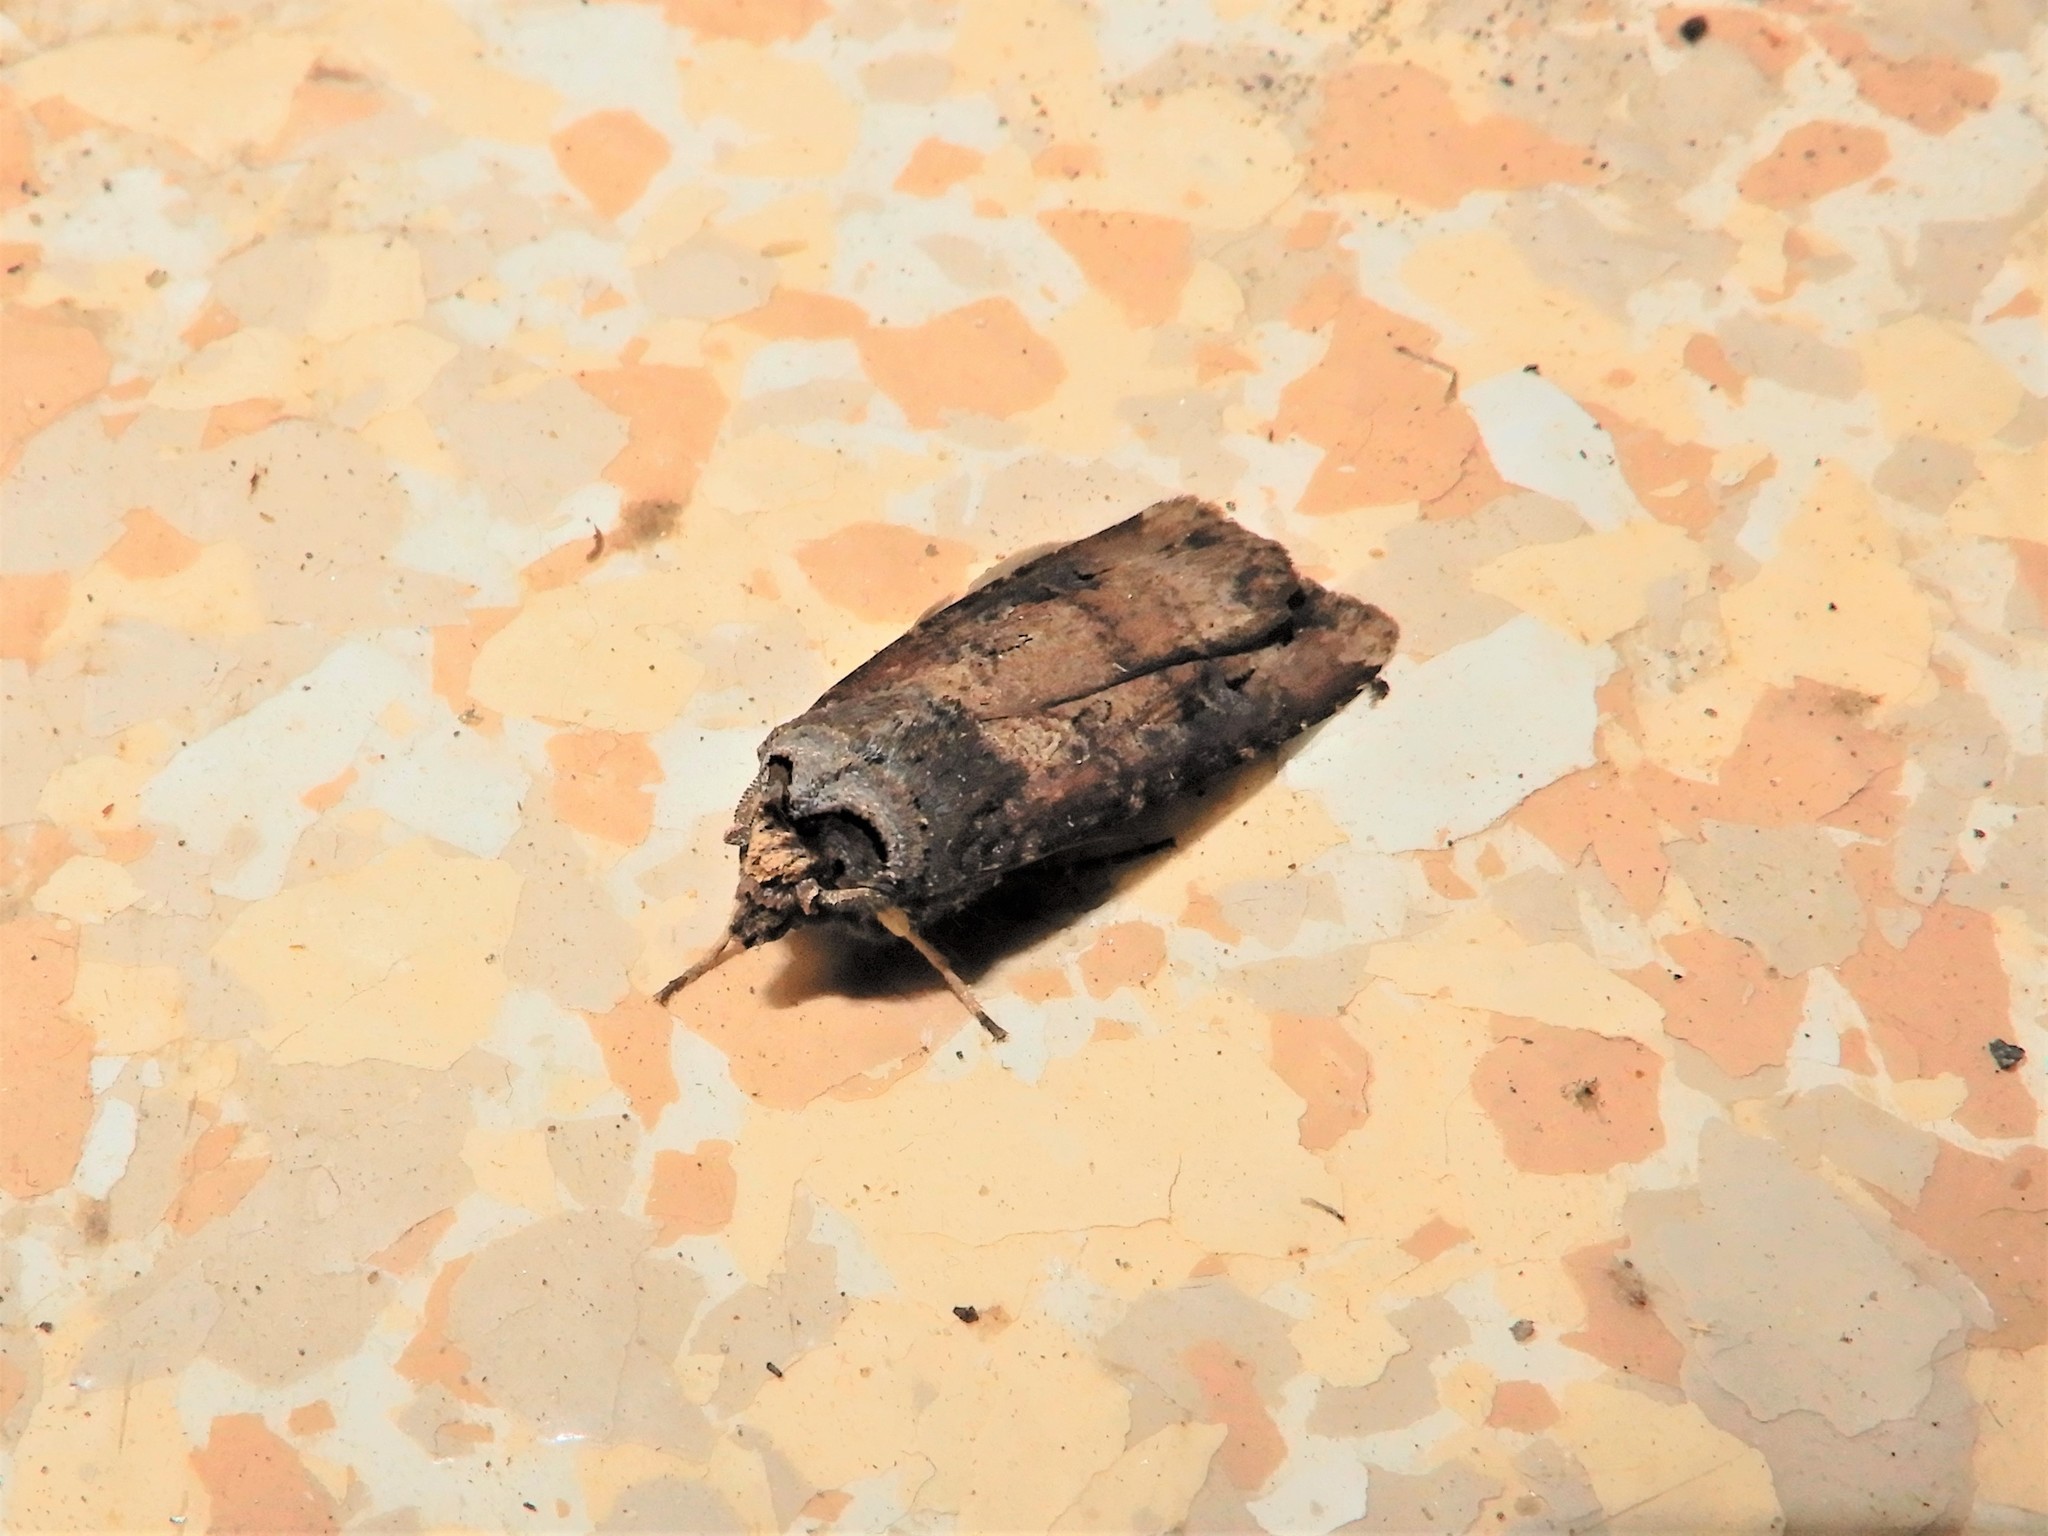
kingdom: Animalia
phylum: Arthropoda
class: Insecta
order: Lepidoptera
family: Noctuidae
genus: Agrotis
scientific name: Agrotis ipsilon
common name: Dark sword-grass
